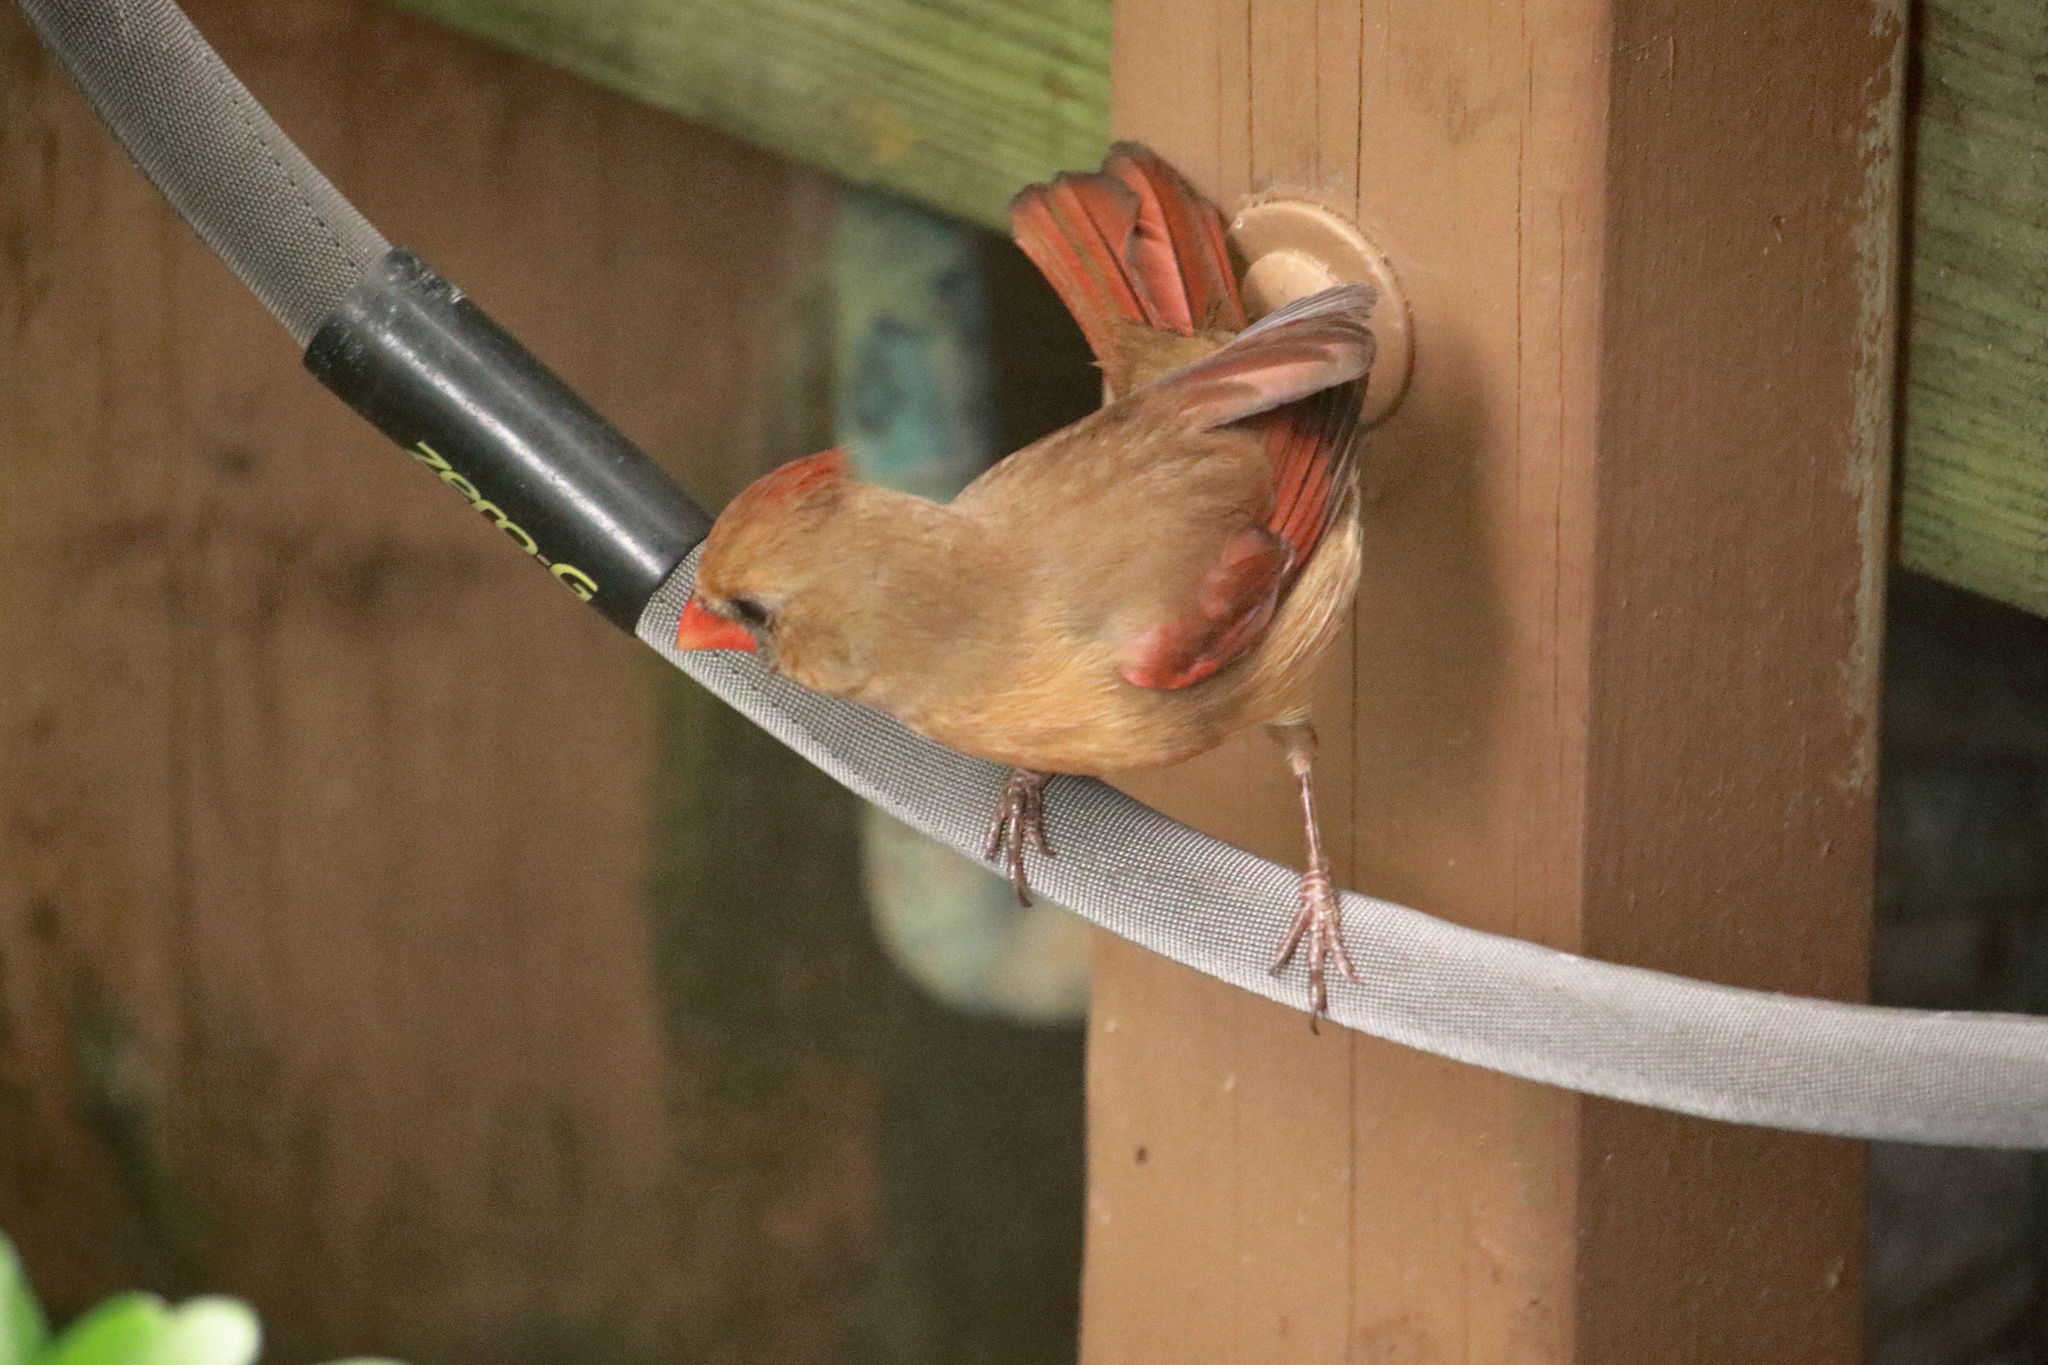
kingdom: Animalia
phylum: Chordata
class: Aves
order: Passeriformes
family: Cardinalidae
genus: Cardinalis
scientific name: Cardinalis cardinalis
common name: Northern cardinal
